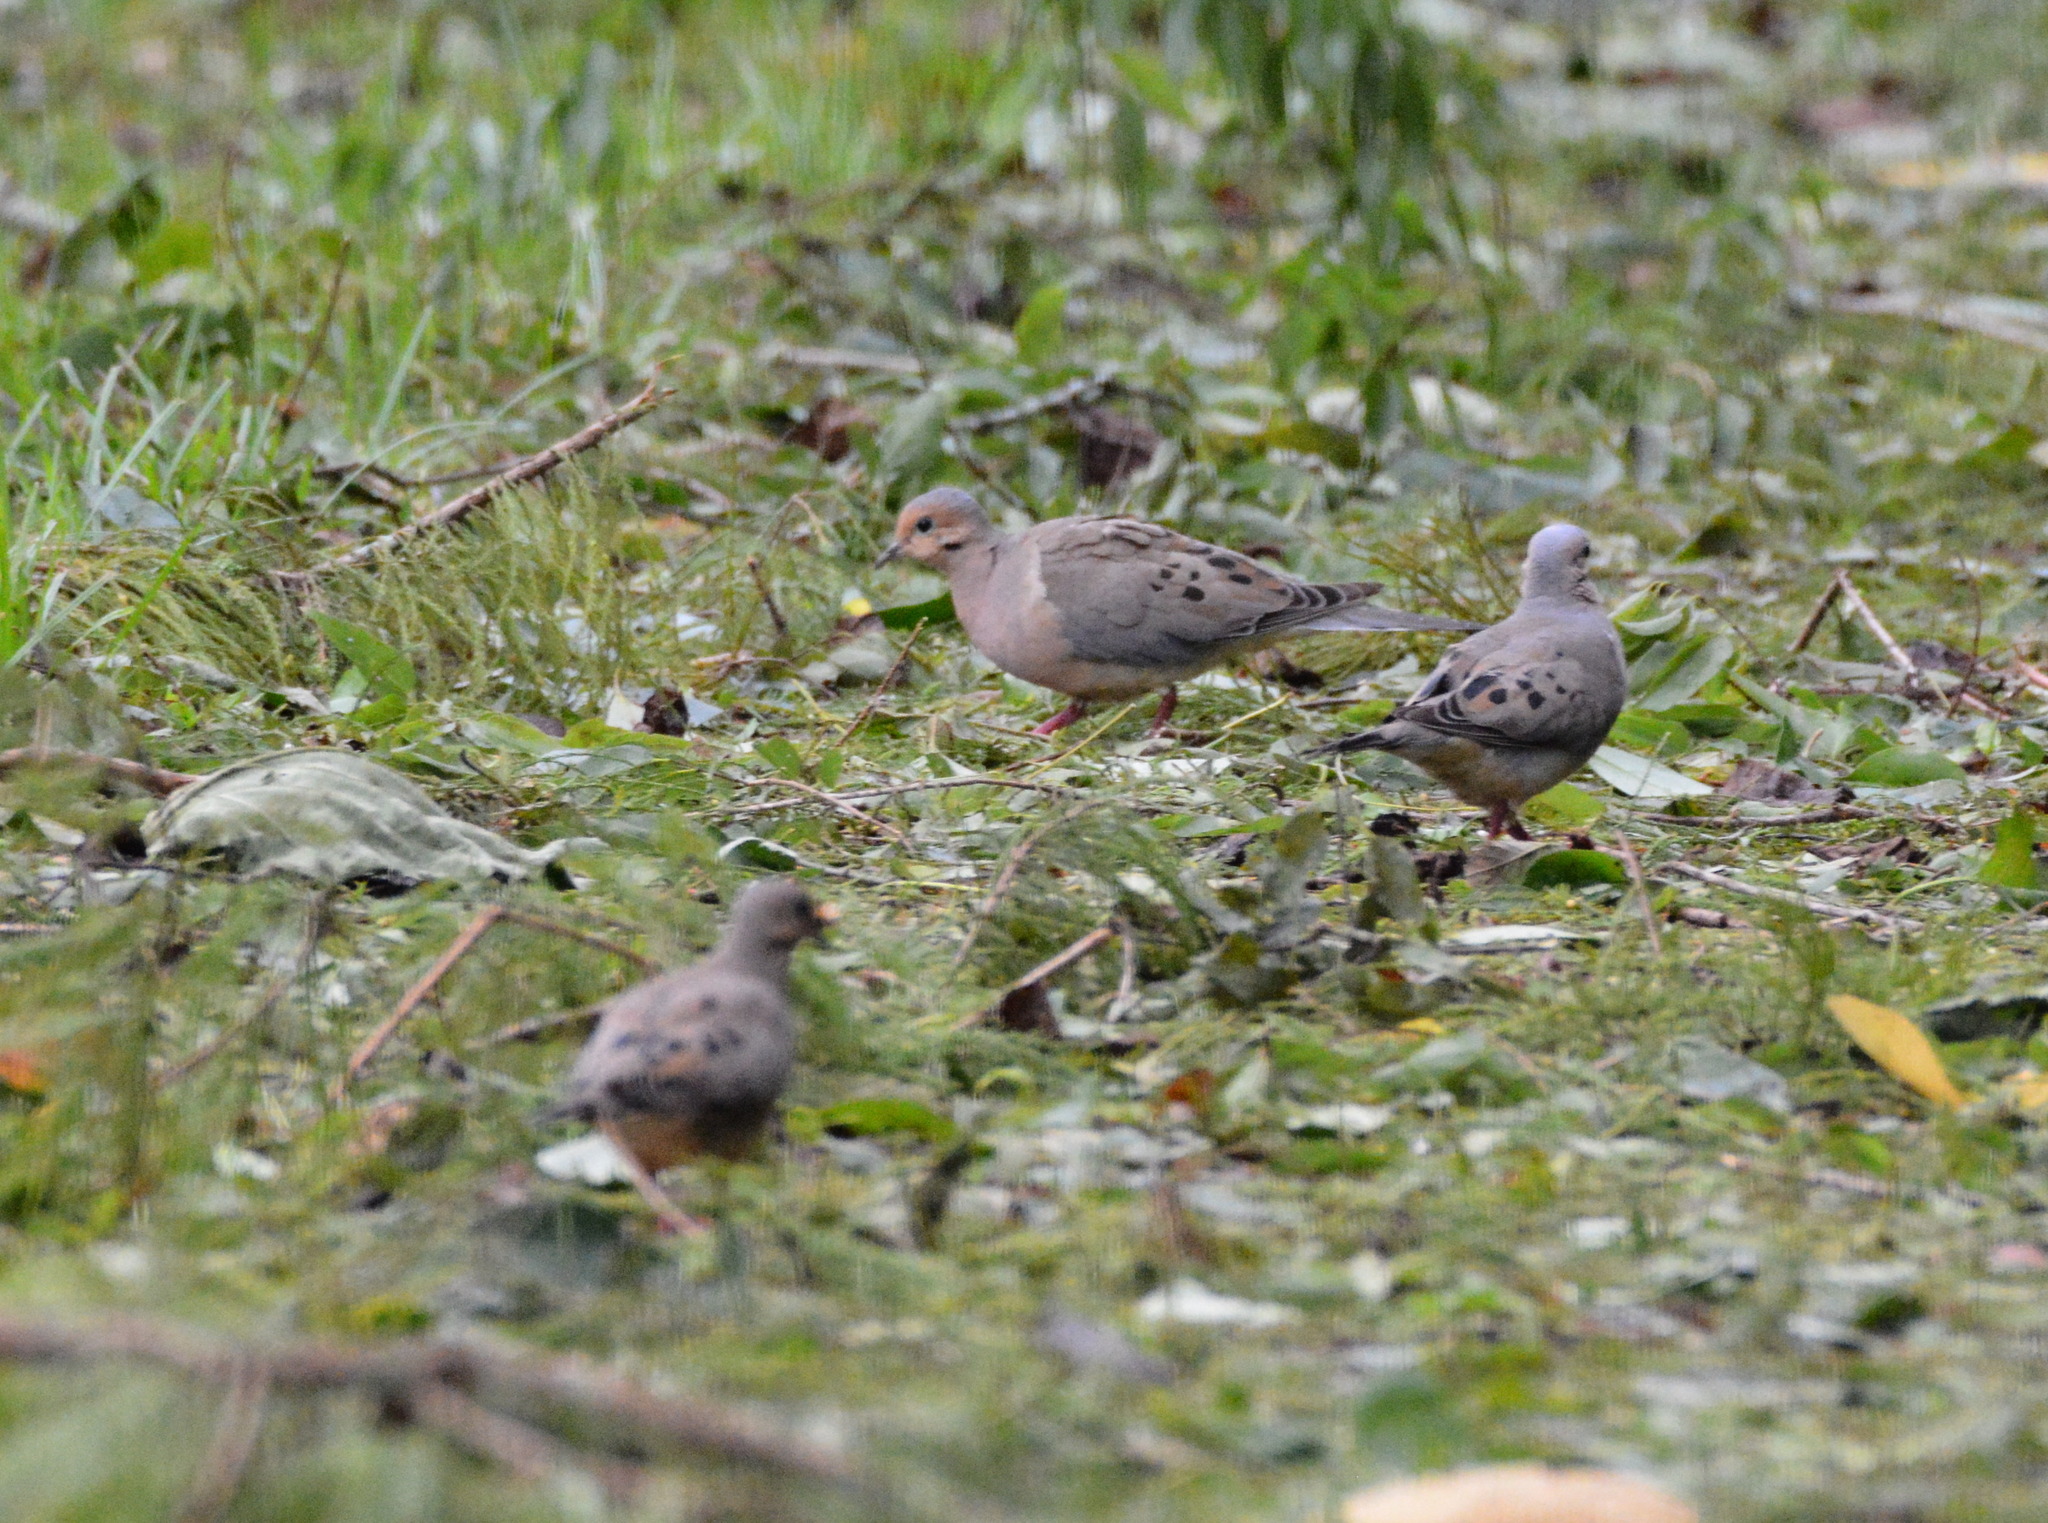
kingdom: Animalia
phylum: Chordata
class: Aves
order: Columbiformes
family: Columbidae
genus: Zenaida
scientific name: Zenaida macroura
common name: Mourning dove
